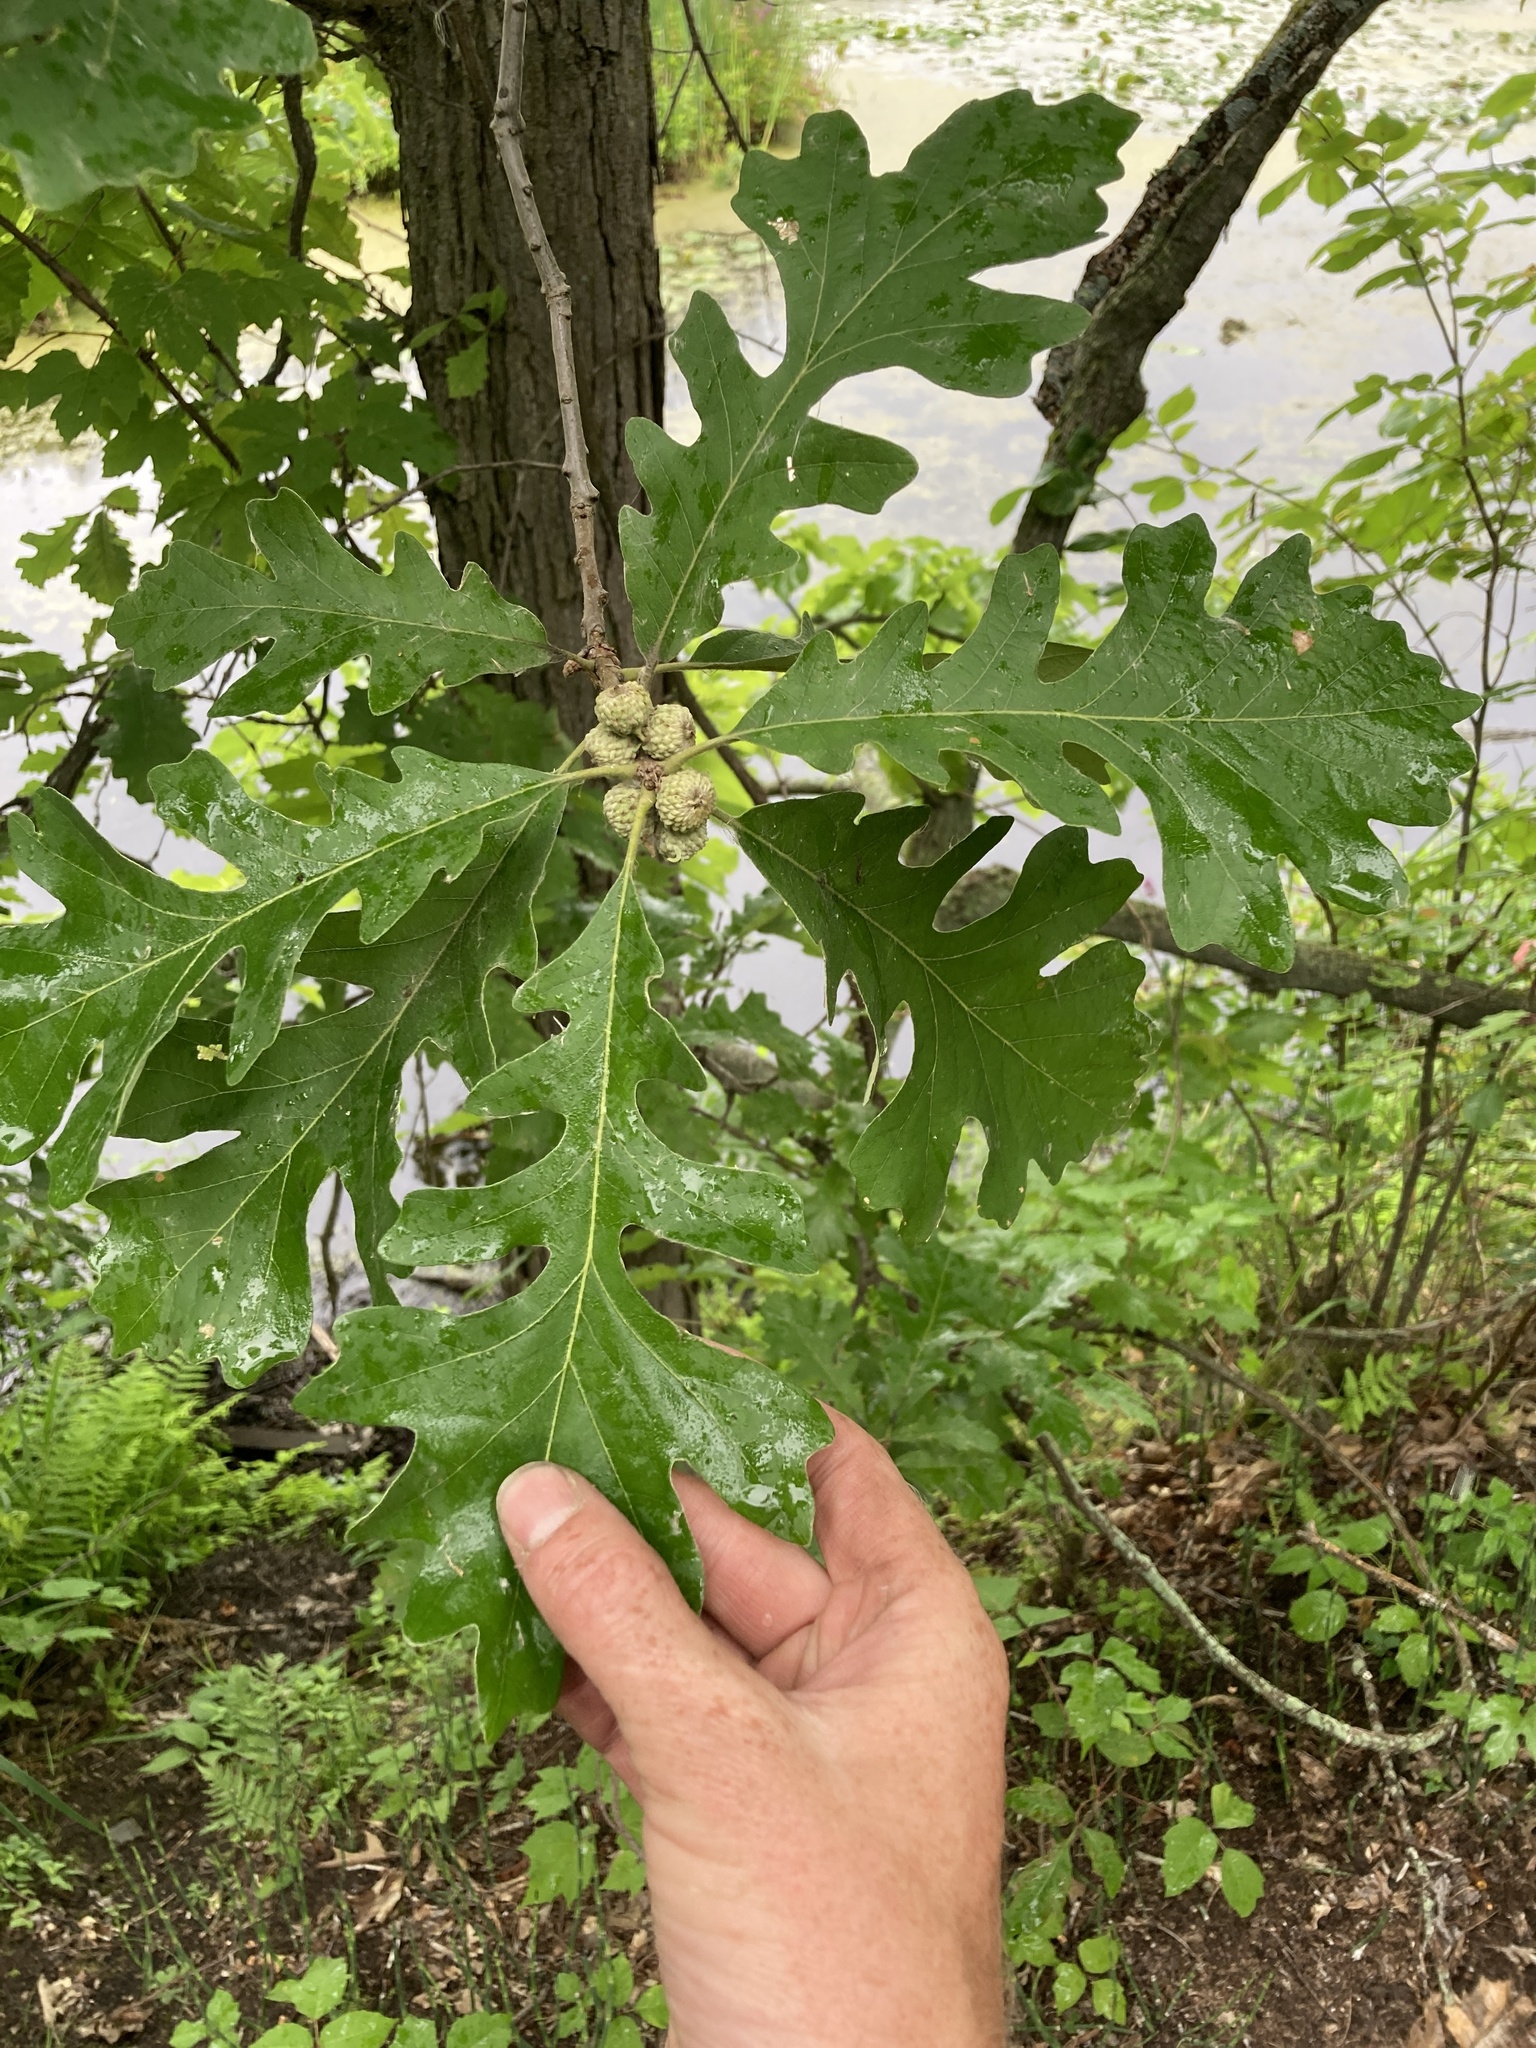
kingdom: Plantae
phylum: Tracheophyta
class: Magnoliopsida
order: Fagales
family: Fagaceae
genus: Quercus
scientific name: Quercus macrocarpa
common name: Bur oak
